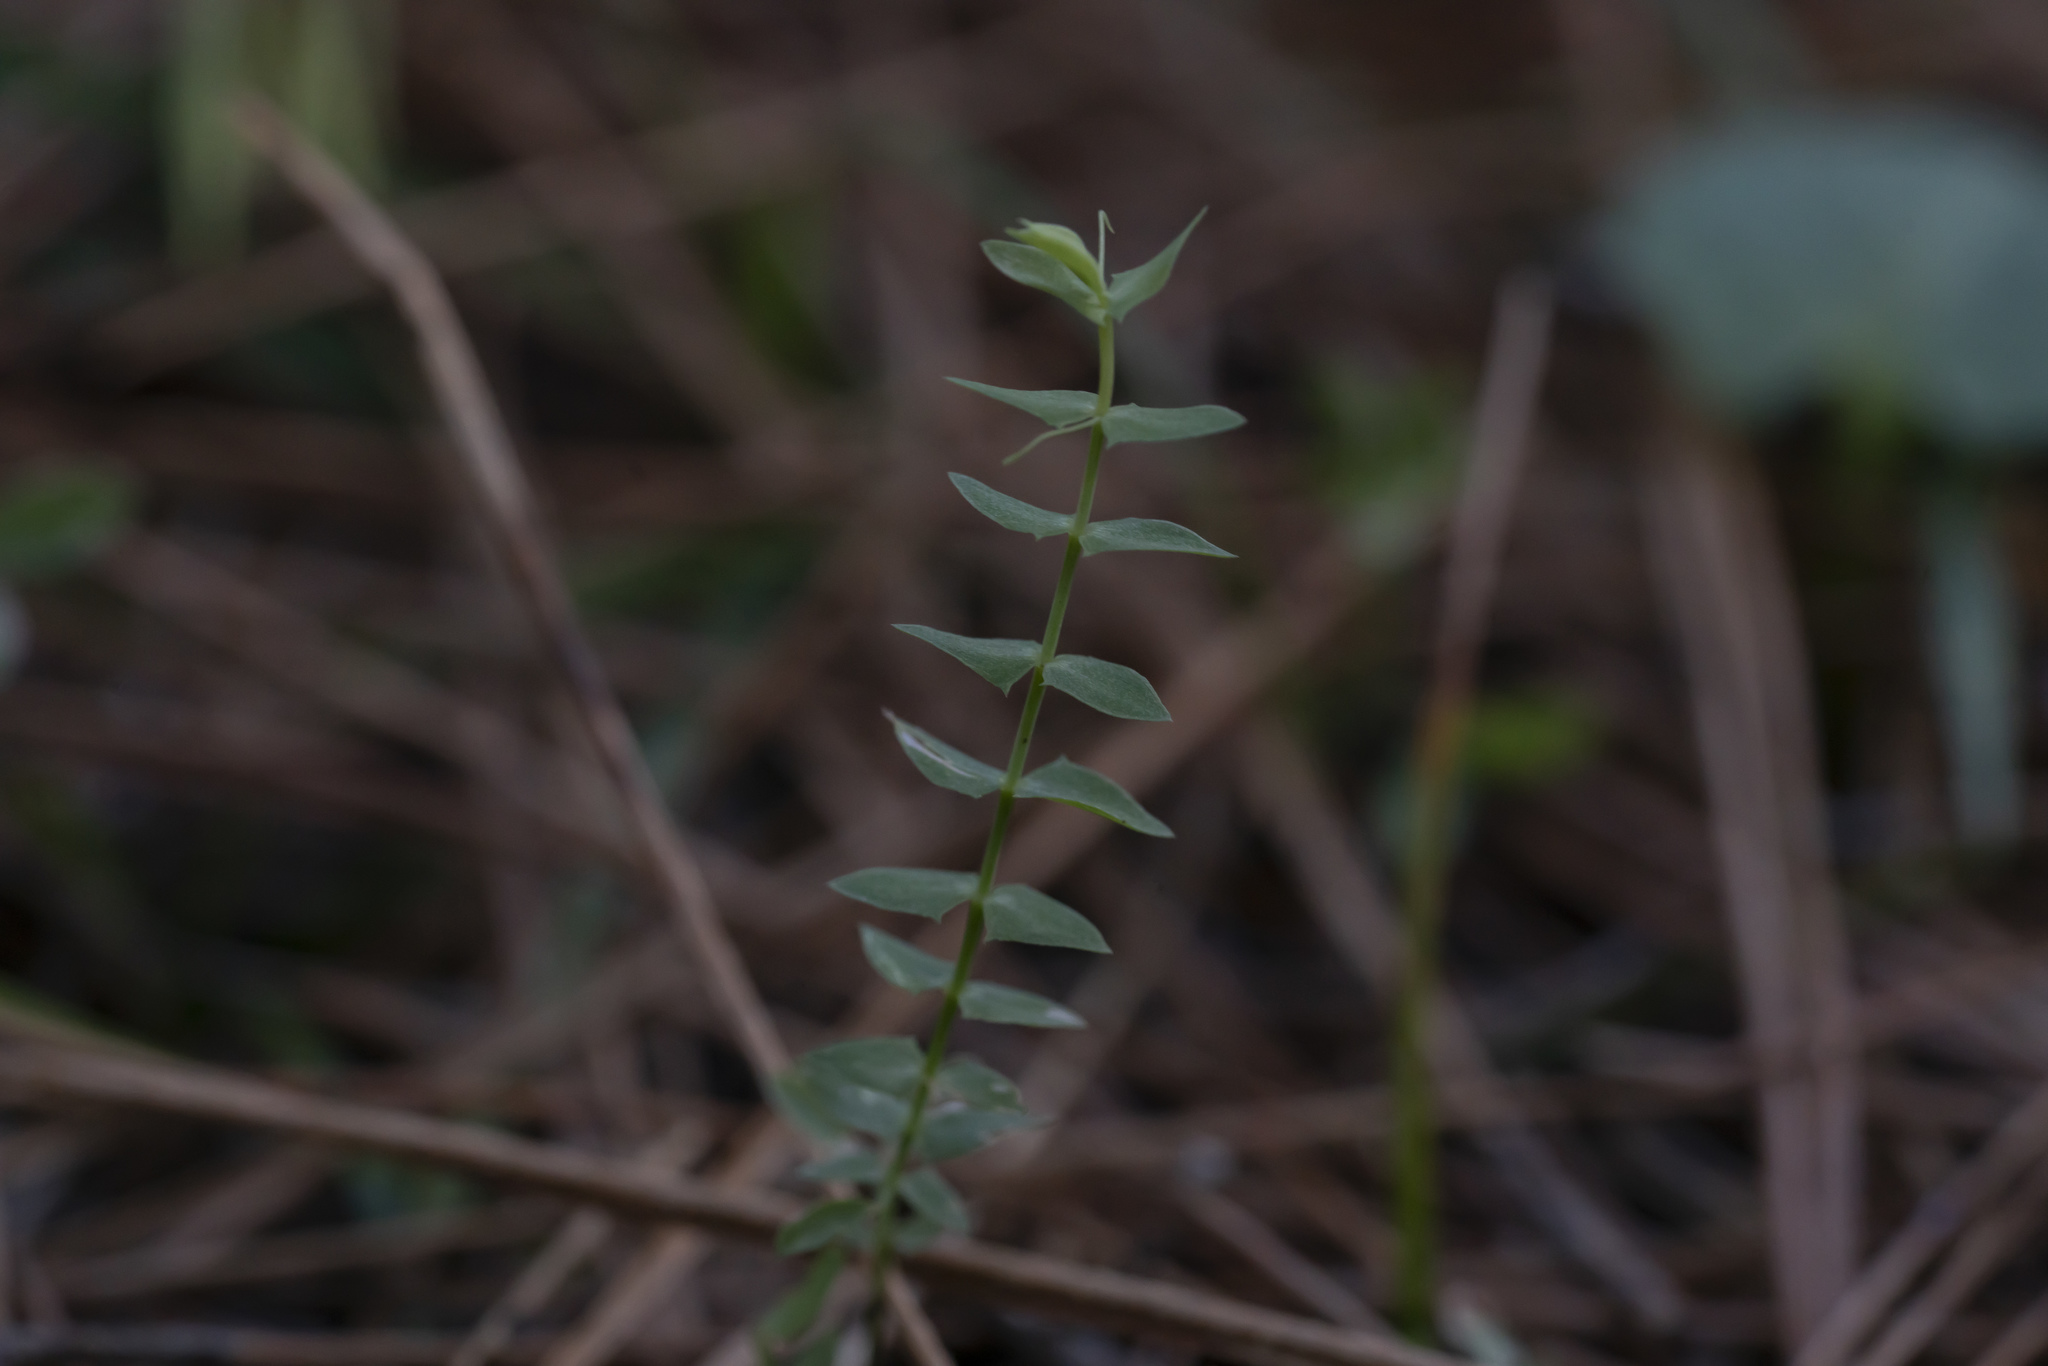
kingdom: Plantae
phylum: Tracheophyta
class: Magnoliopsida
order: Fabales
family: Fabaceae
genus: Lathyrus
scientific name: Lathyrus aphaca
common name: Yellow vetchling
